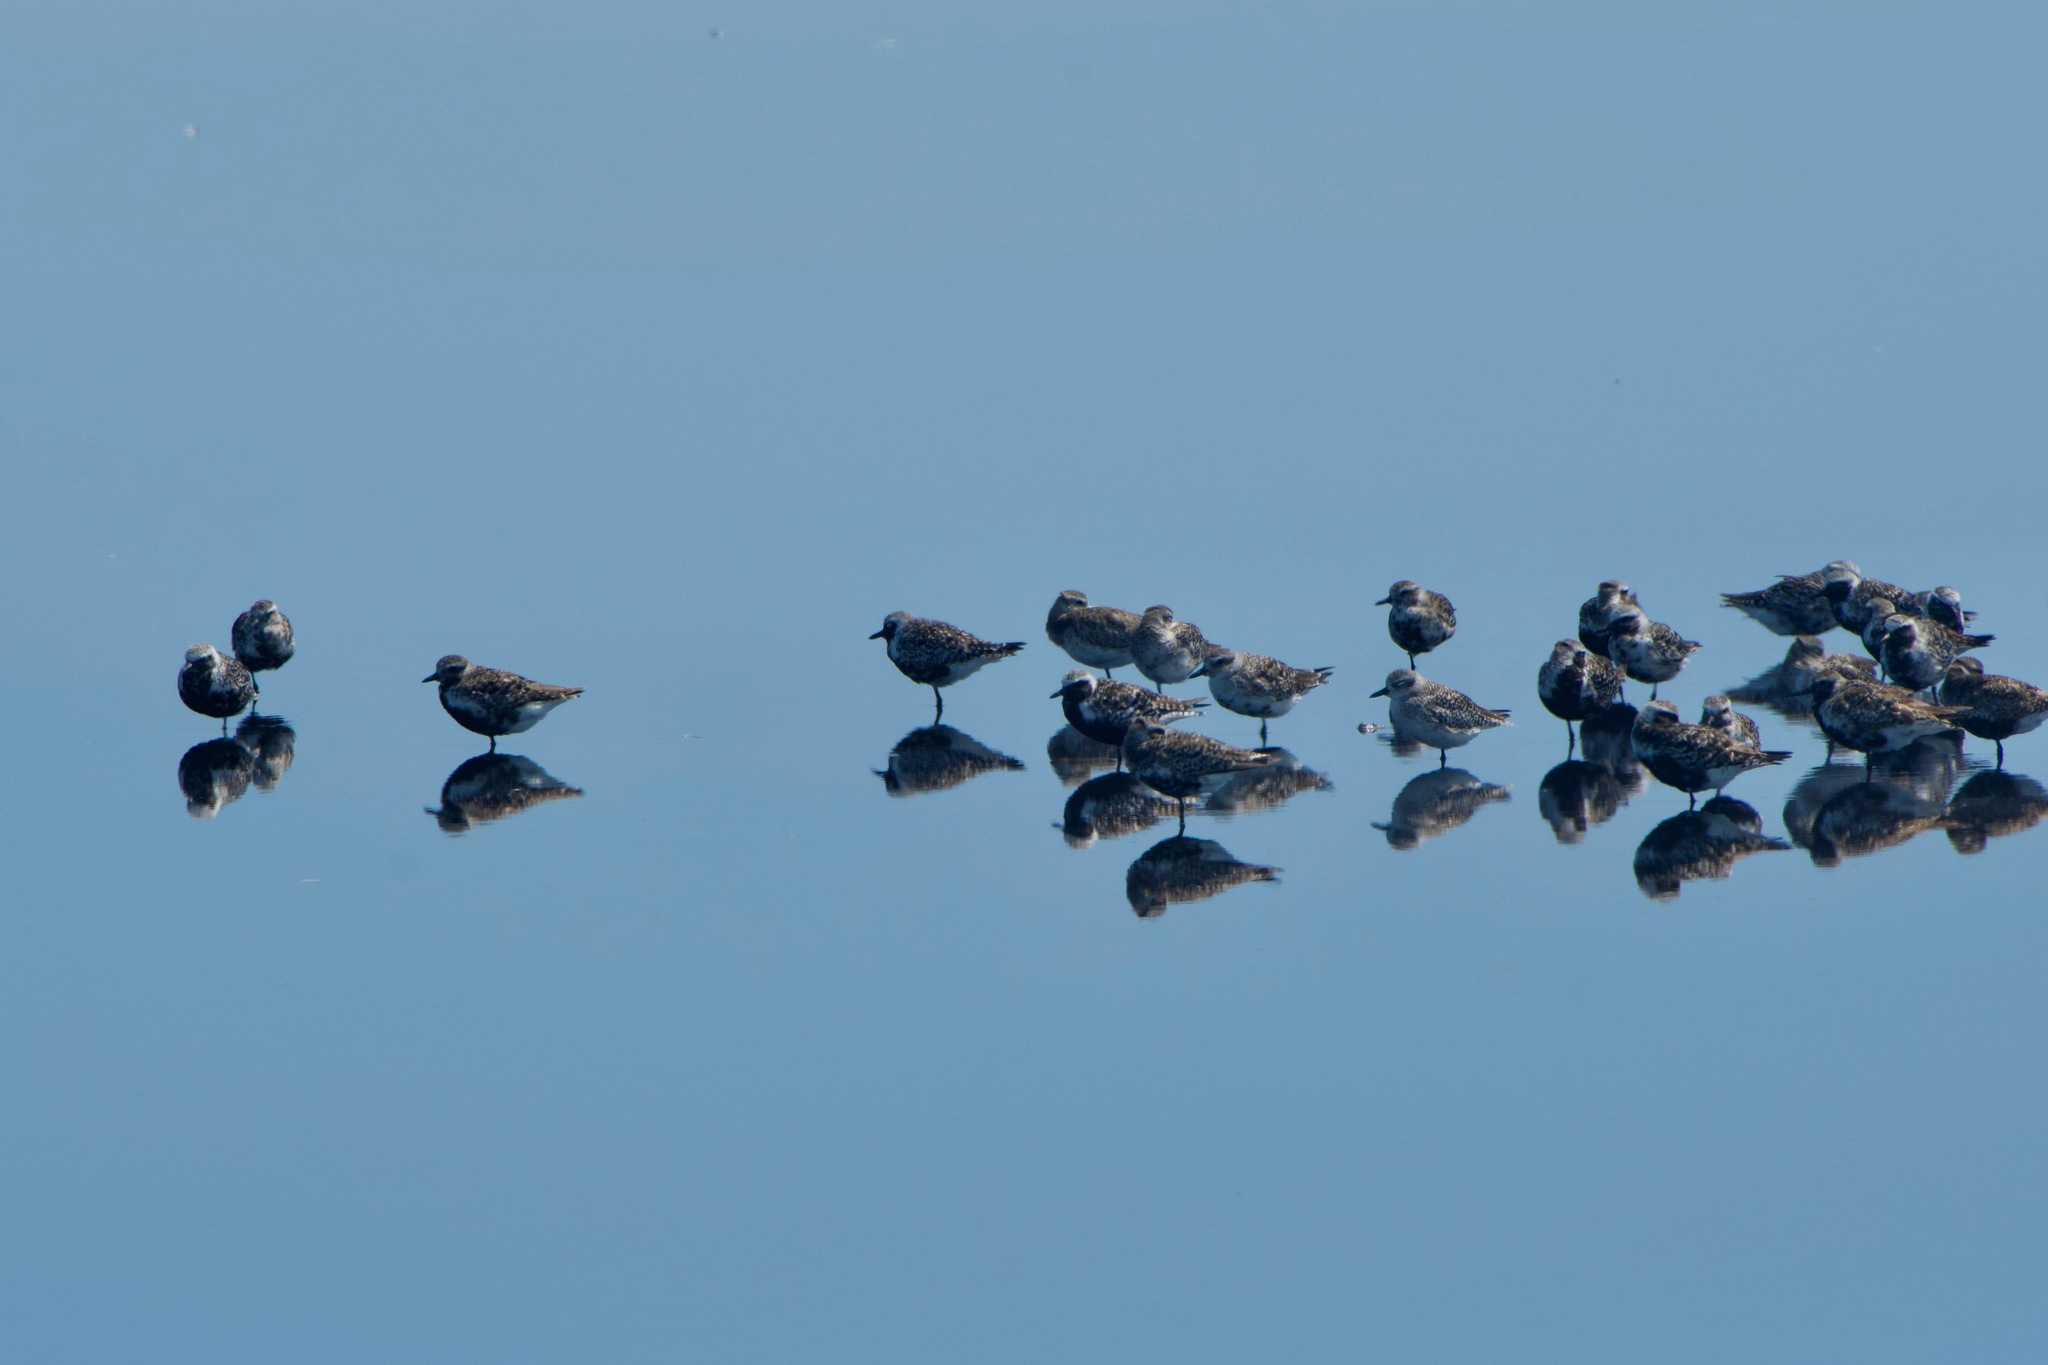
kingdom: Animalia
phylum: Chordata
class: Aves
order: Charadriiformes
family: Charadriidae
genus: Pluvialis
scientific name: Pluvialis squatarola
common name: Grey plover
